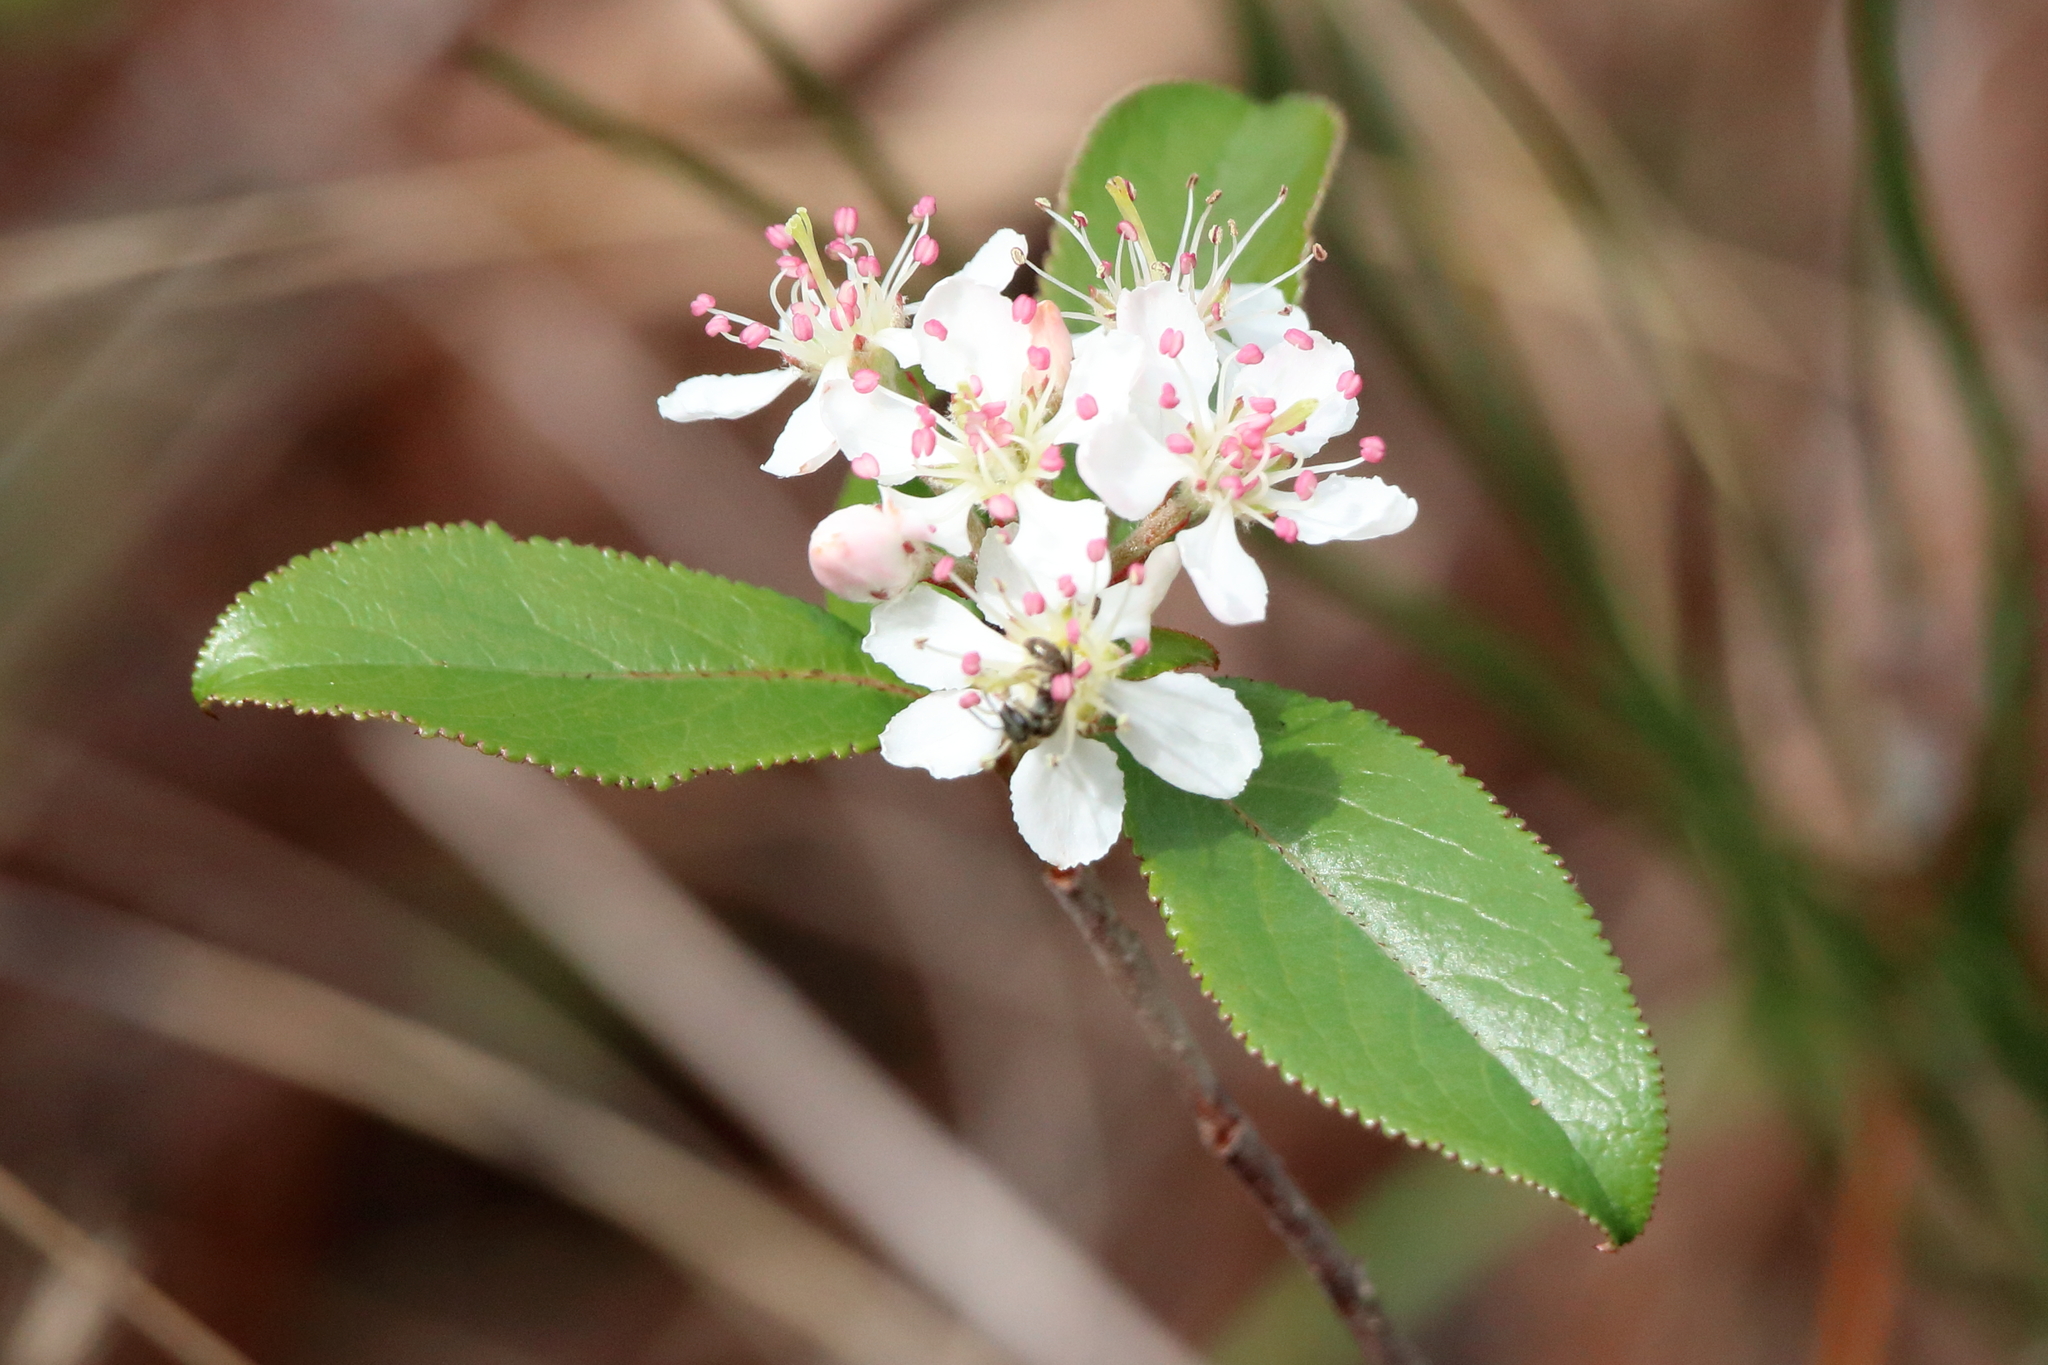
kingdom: Plantae
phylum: Tracheophyta
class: Magnoliopsida
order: Rosales
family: Rosaceae
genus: Aronia
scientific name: Aronia arbutifolia
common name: Red chokeberry
